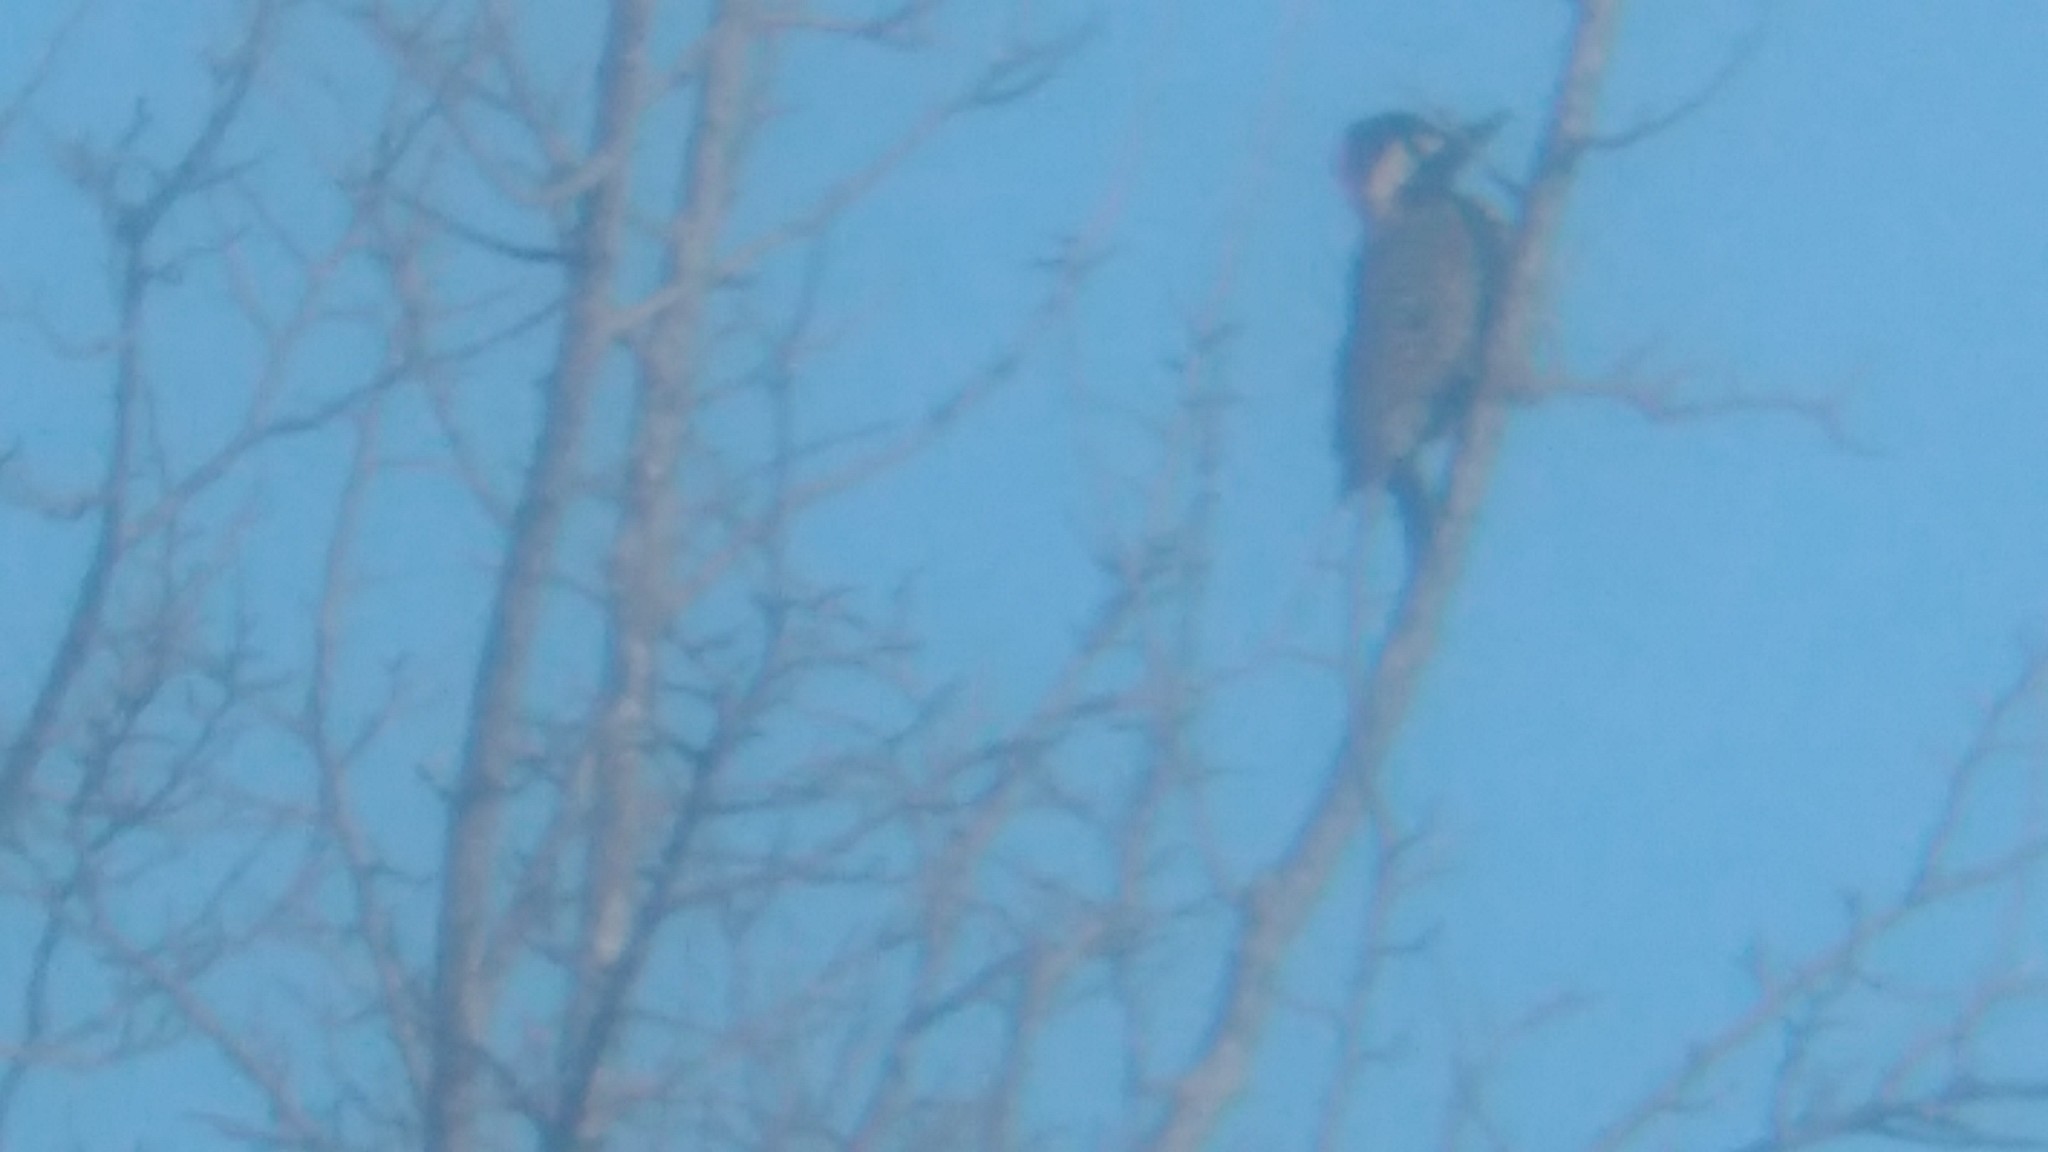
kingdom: Animalia
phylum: Chordata
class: Aves
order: Piciformes
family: Picidae
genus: Colaptes
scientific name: Colaptes melanochloros
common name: Green-barred woodpecker
